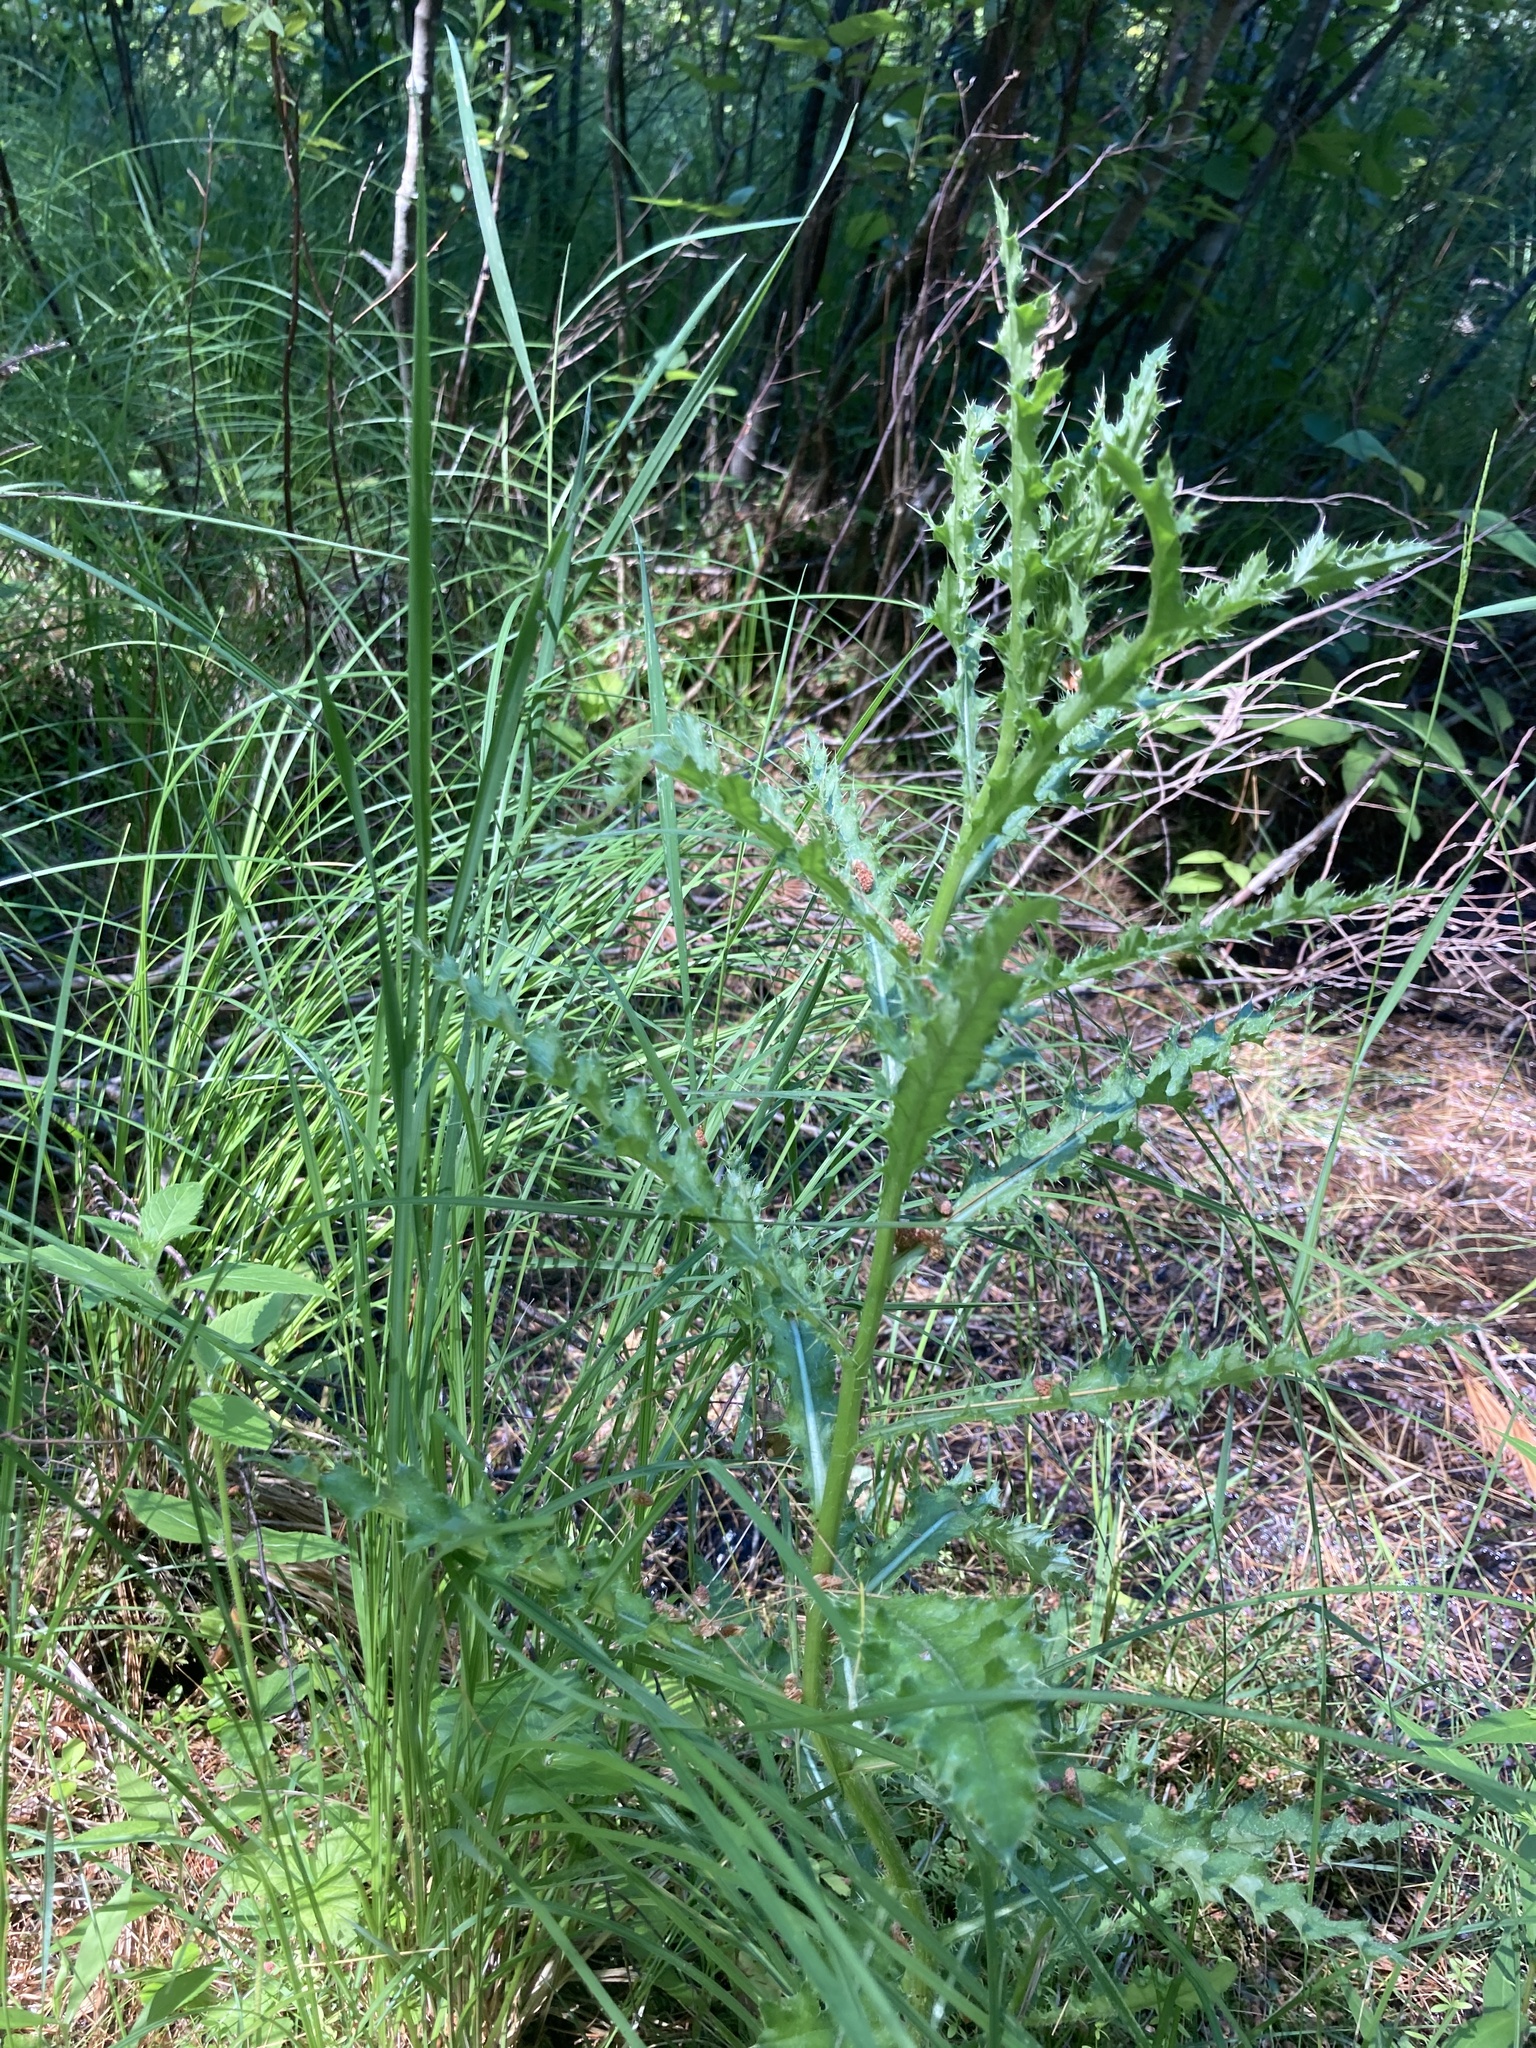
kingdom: Plantae
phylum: Tracheophyta
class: Magnoliopsida
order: Asterales
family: Asteraceae
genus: Cirsium
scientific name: Cirsium arvense
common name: Creeping thistle
